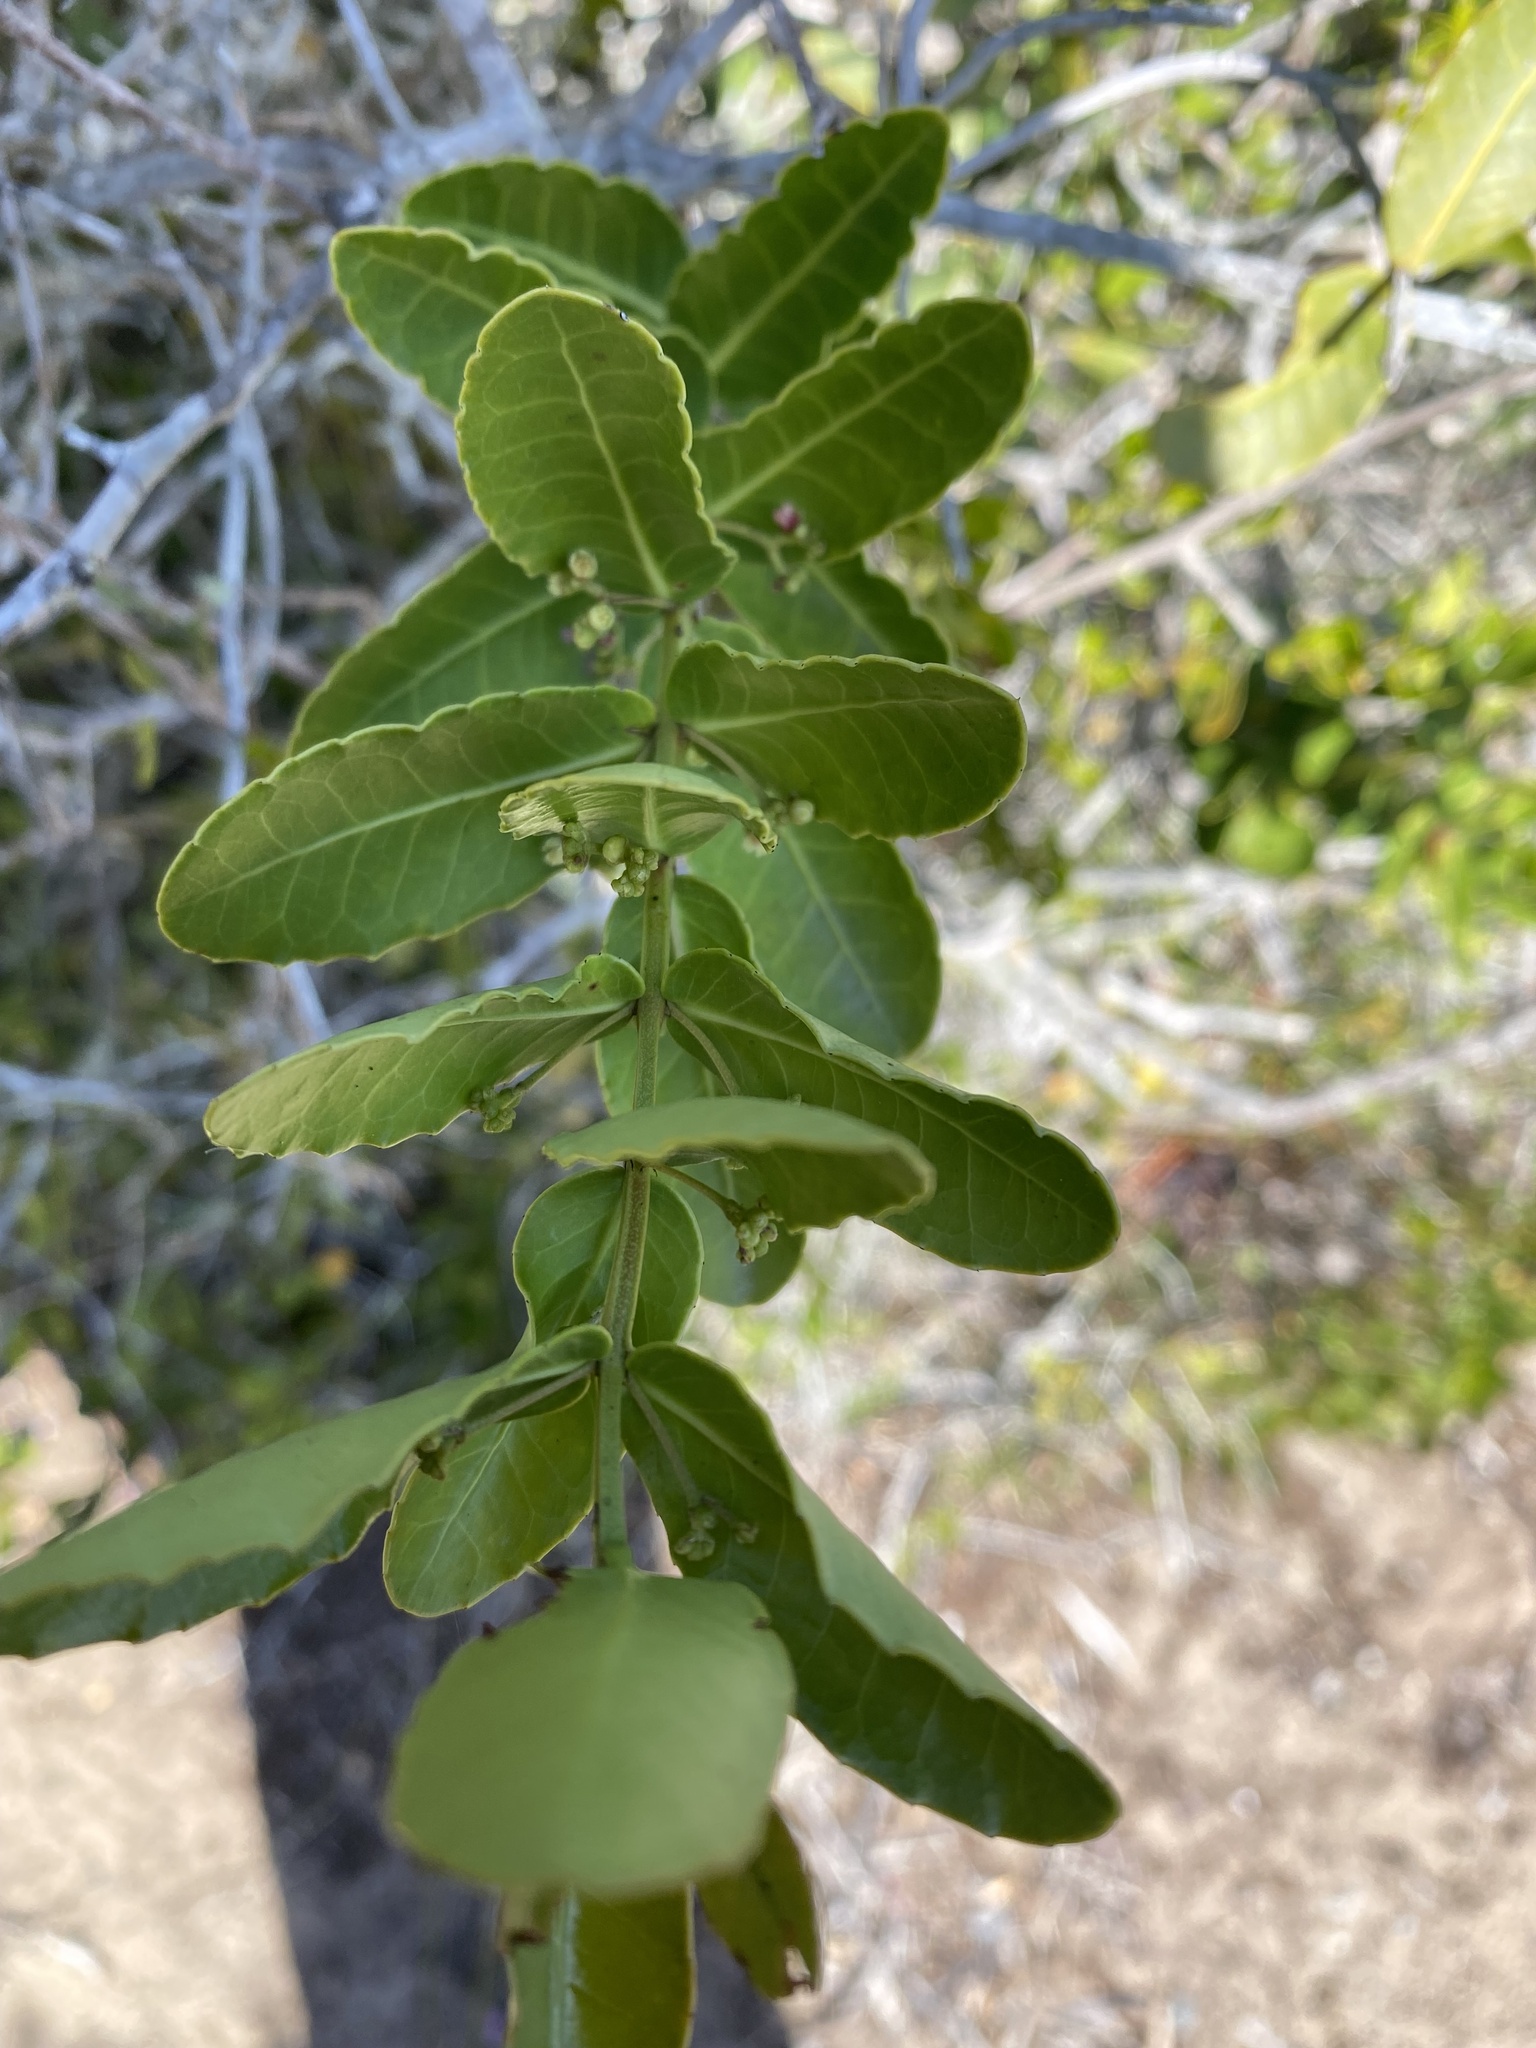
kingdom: Plantae
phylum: Tracheophyta
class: Magnoliopsida
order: Celastrales
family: Celastraceae
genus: Lauridia
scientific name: Lauridia tetragona
